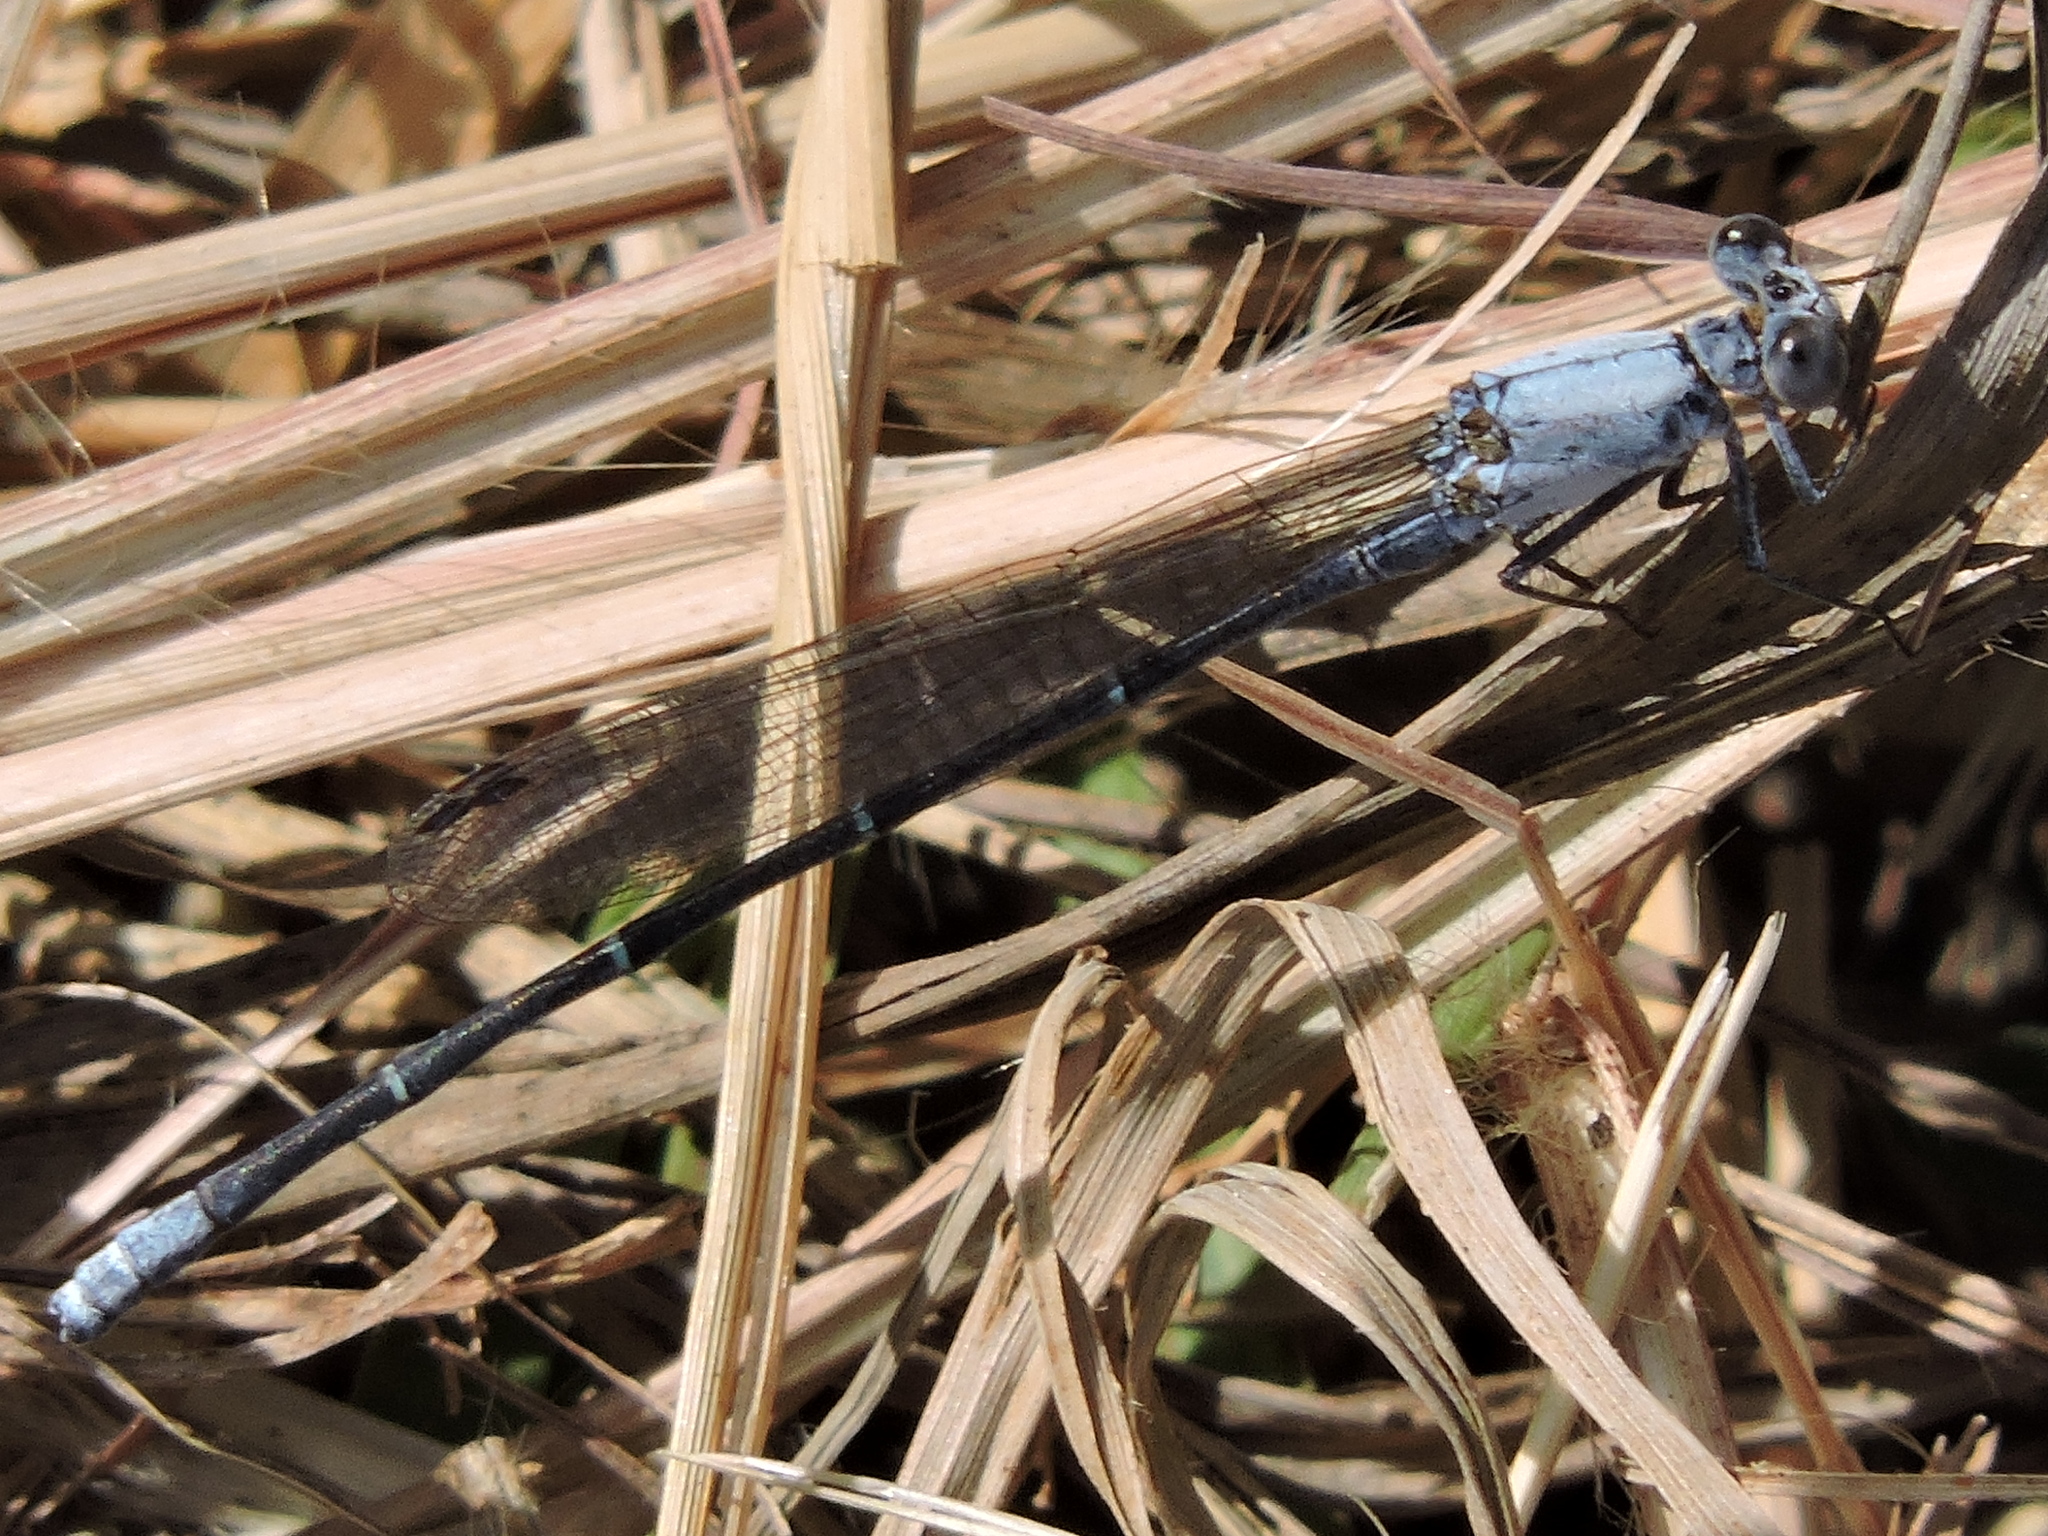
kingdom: Animalia
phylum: Arthropoda
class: Insecta
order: Odonata
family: Coenagrionidae
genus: Argia
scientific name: Argia moesta
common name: Powdered dancer
